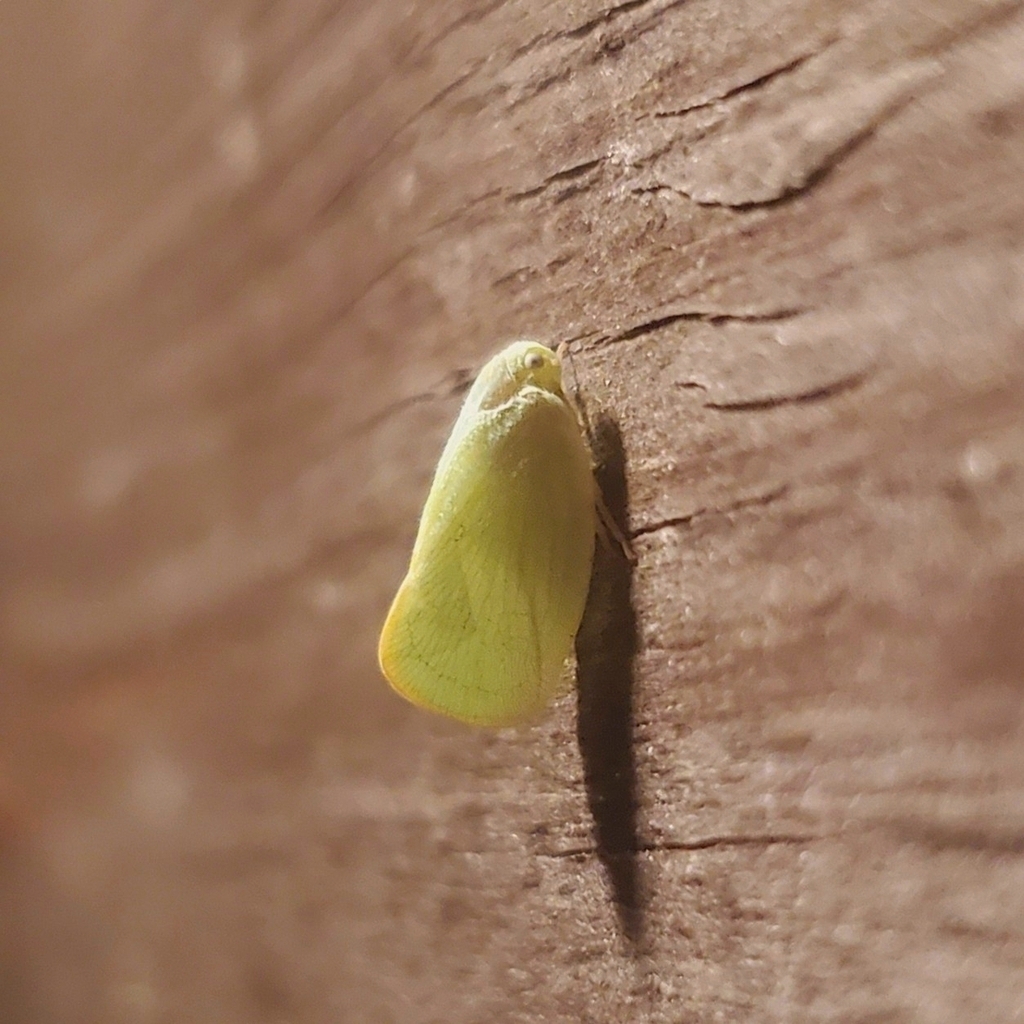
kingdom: Animalia
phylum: Arthropoda
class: Insecta
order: Hemiptera
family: Flatidae
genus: Ormenoides
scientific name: Ormenoides venusta
